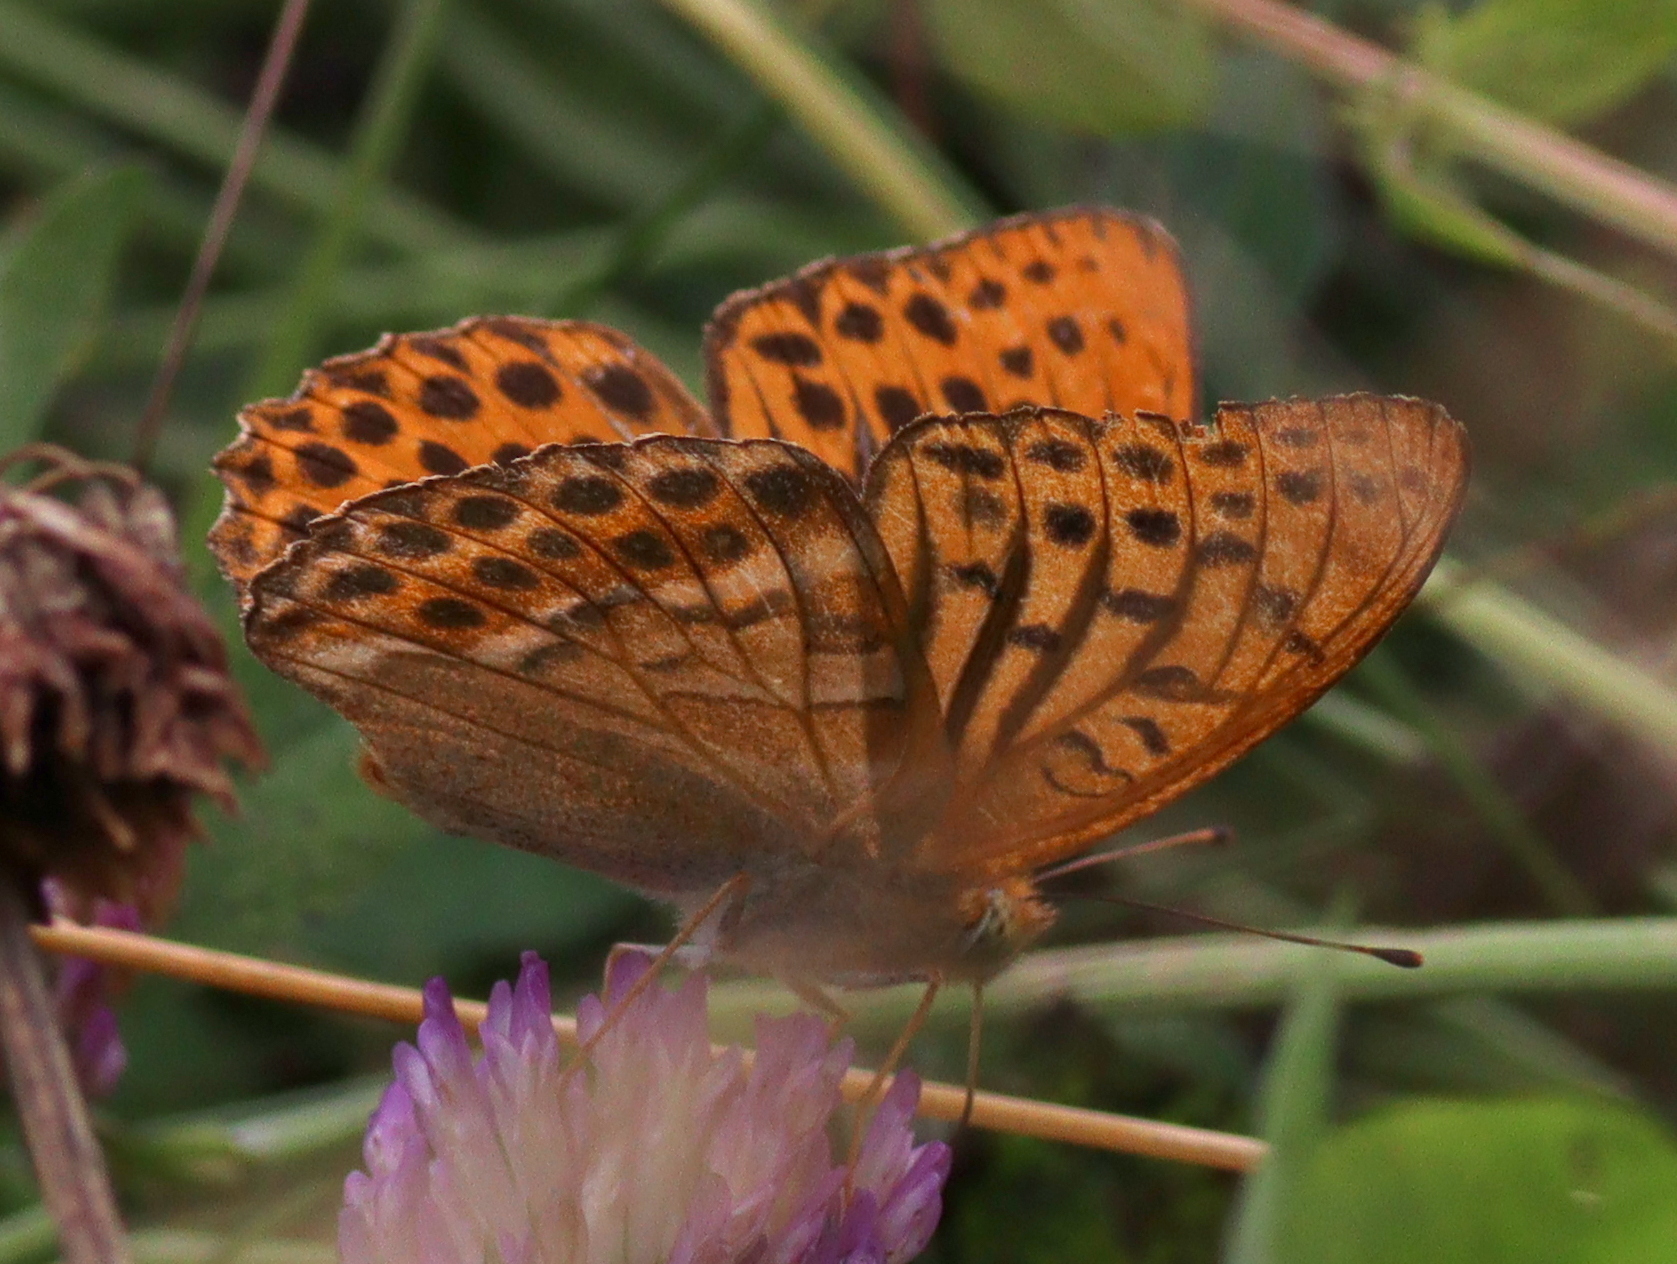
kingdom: Animalia
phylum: Arthropoda
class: Insecta
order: Lepidoptera
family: Nymphalidae
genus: Argynnis
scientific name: Argynnis paphia
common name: Silver-washed fritillary
